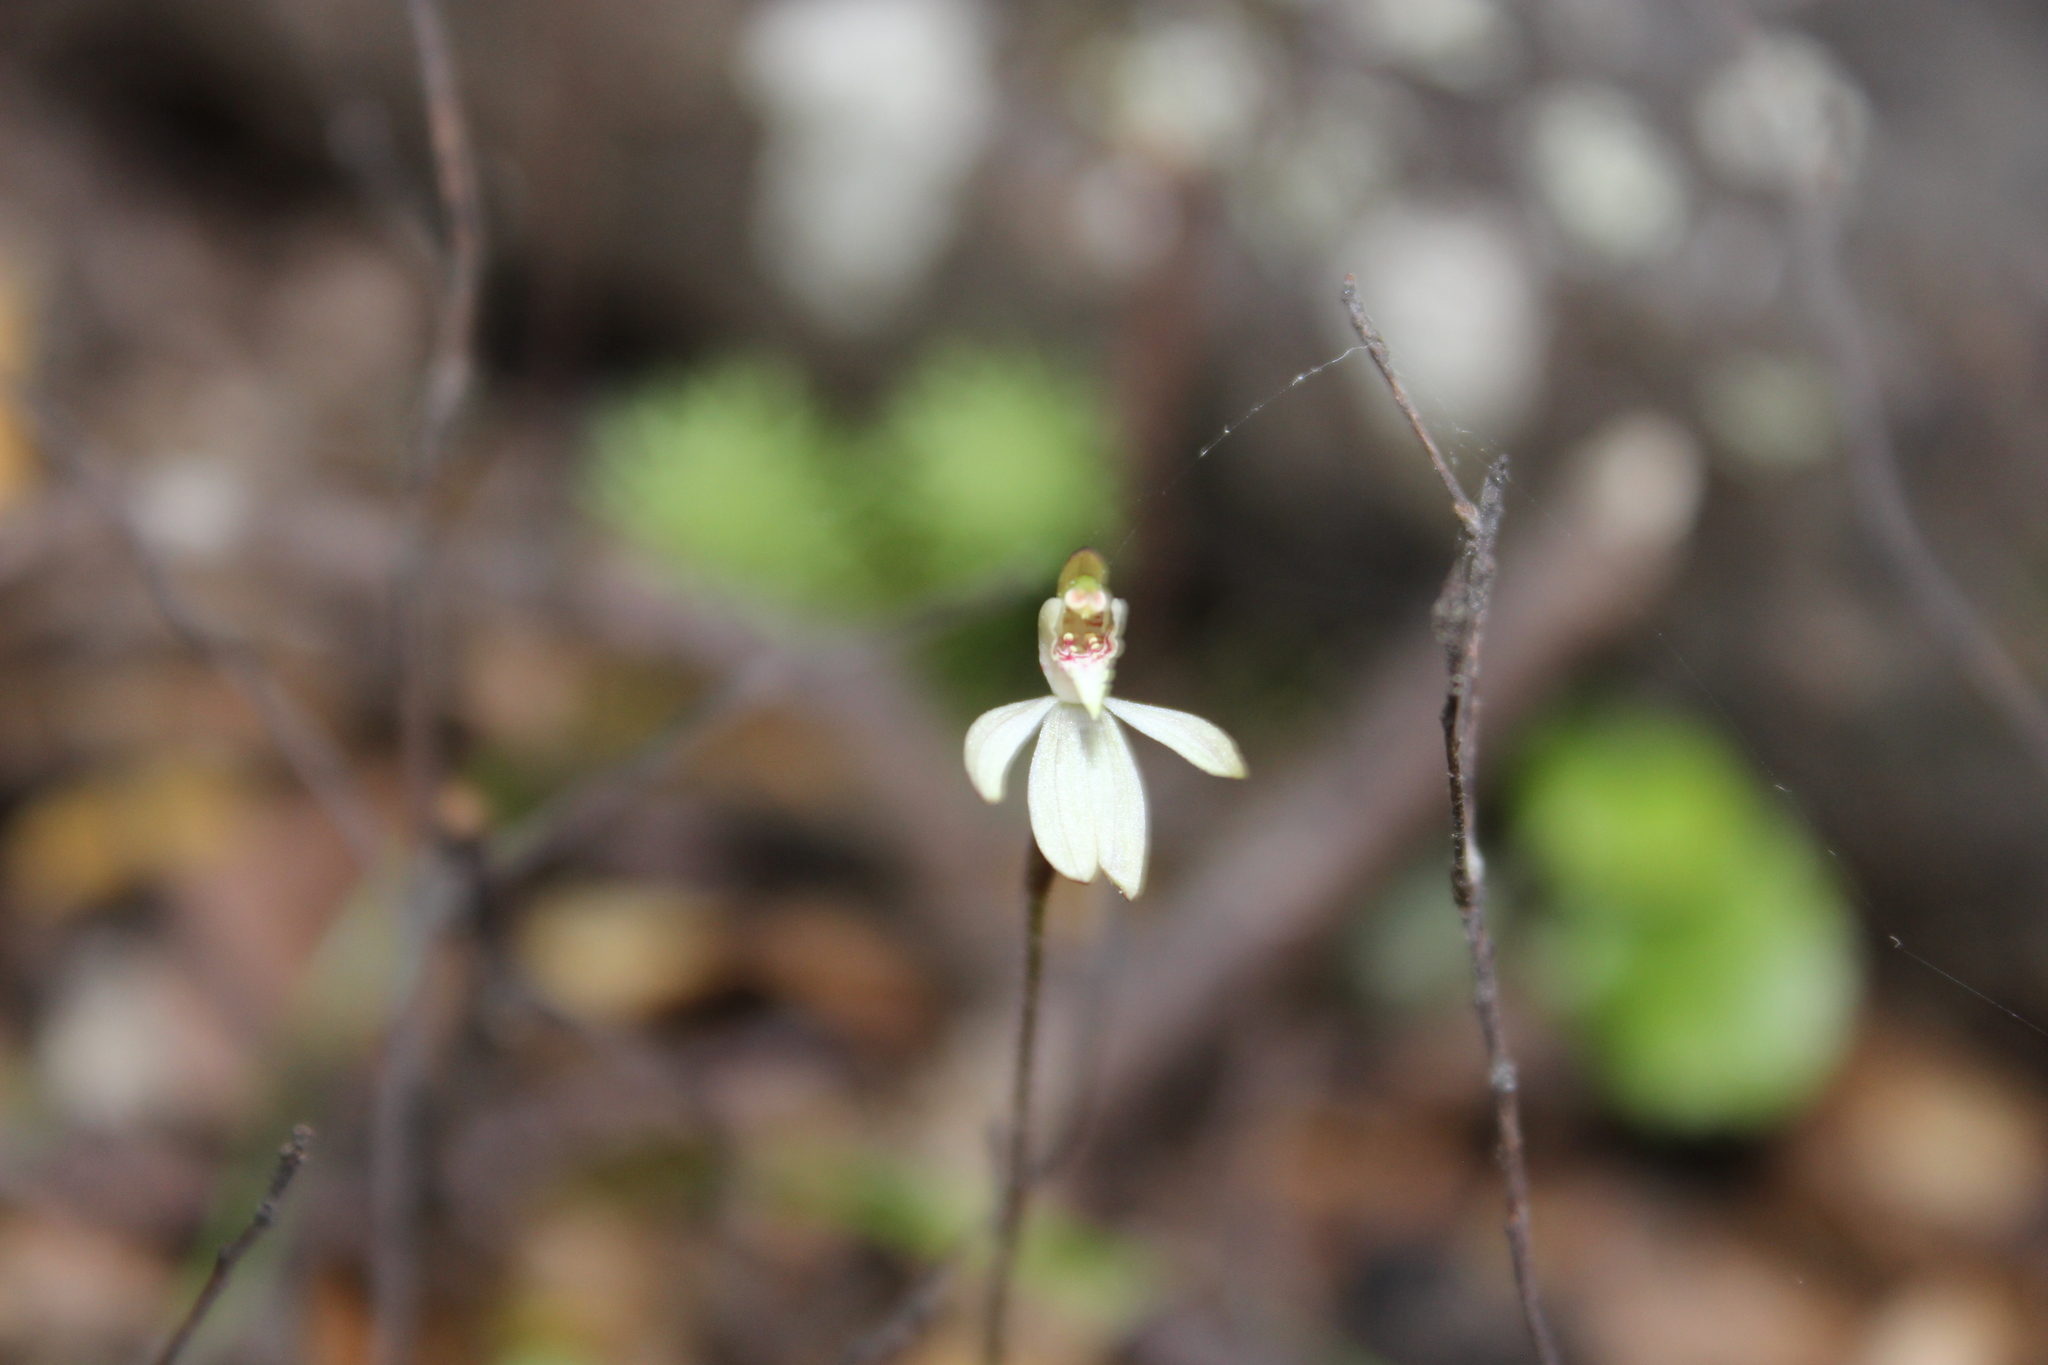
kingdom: Plantae
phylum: Tracheophyta
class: Liliopsida
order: Asparagales
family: Orchidaceae
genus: Caladenia
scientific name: Caladenia chlorostyla
